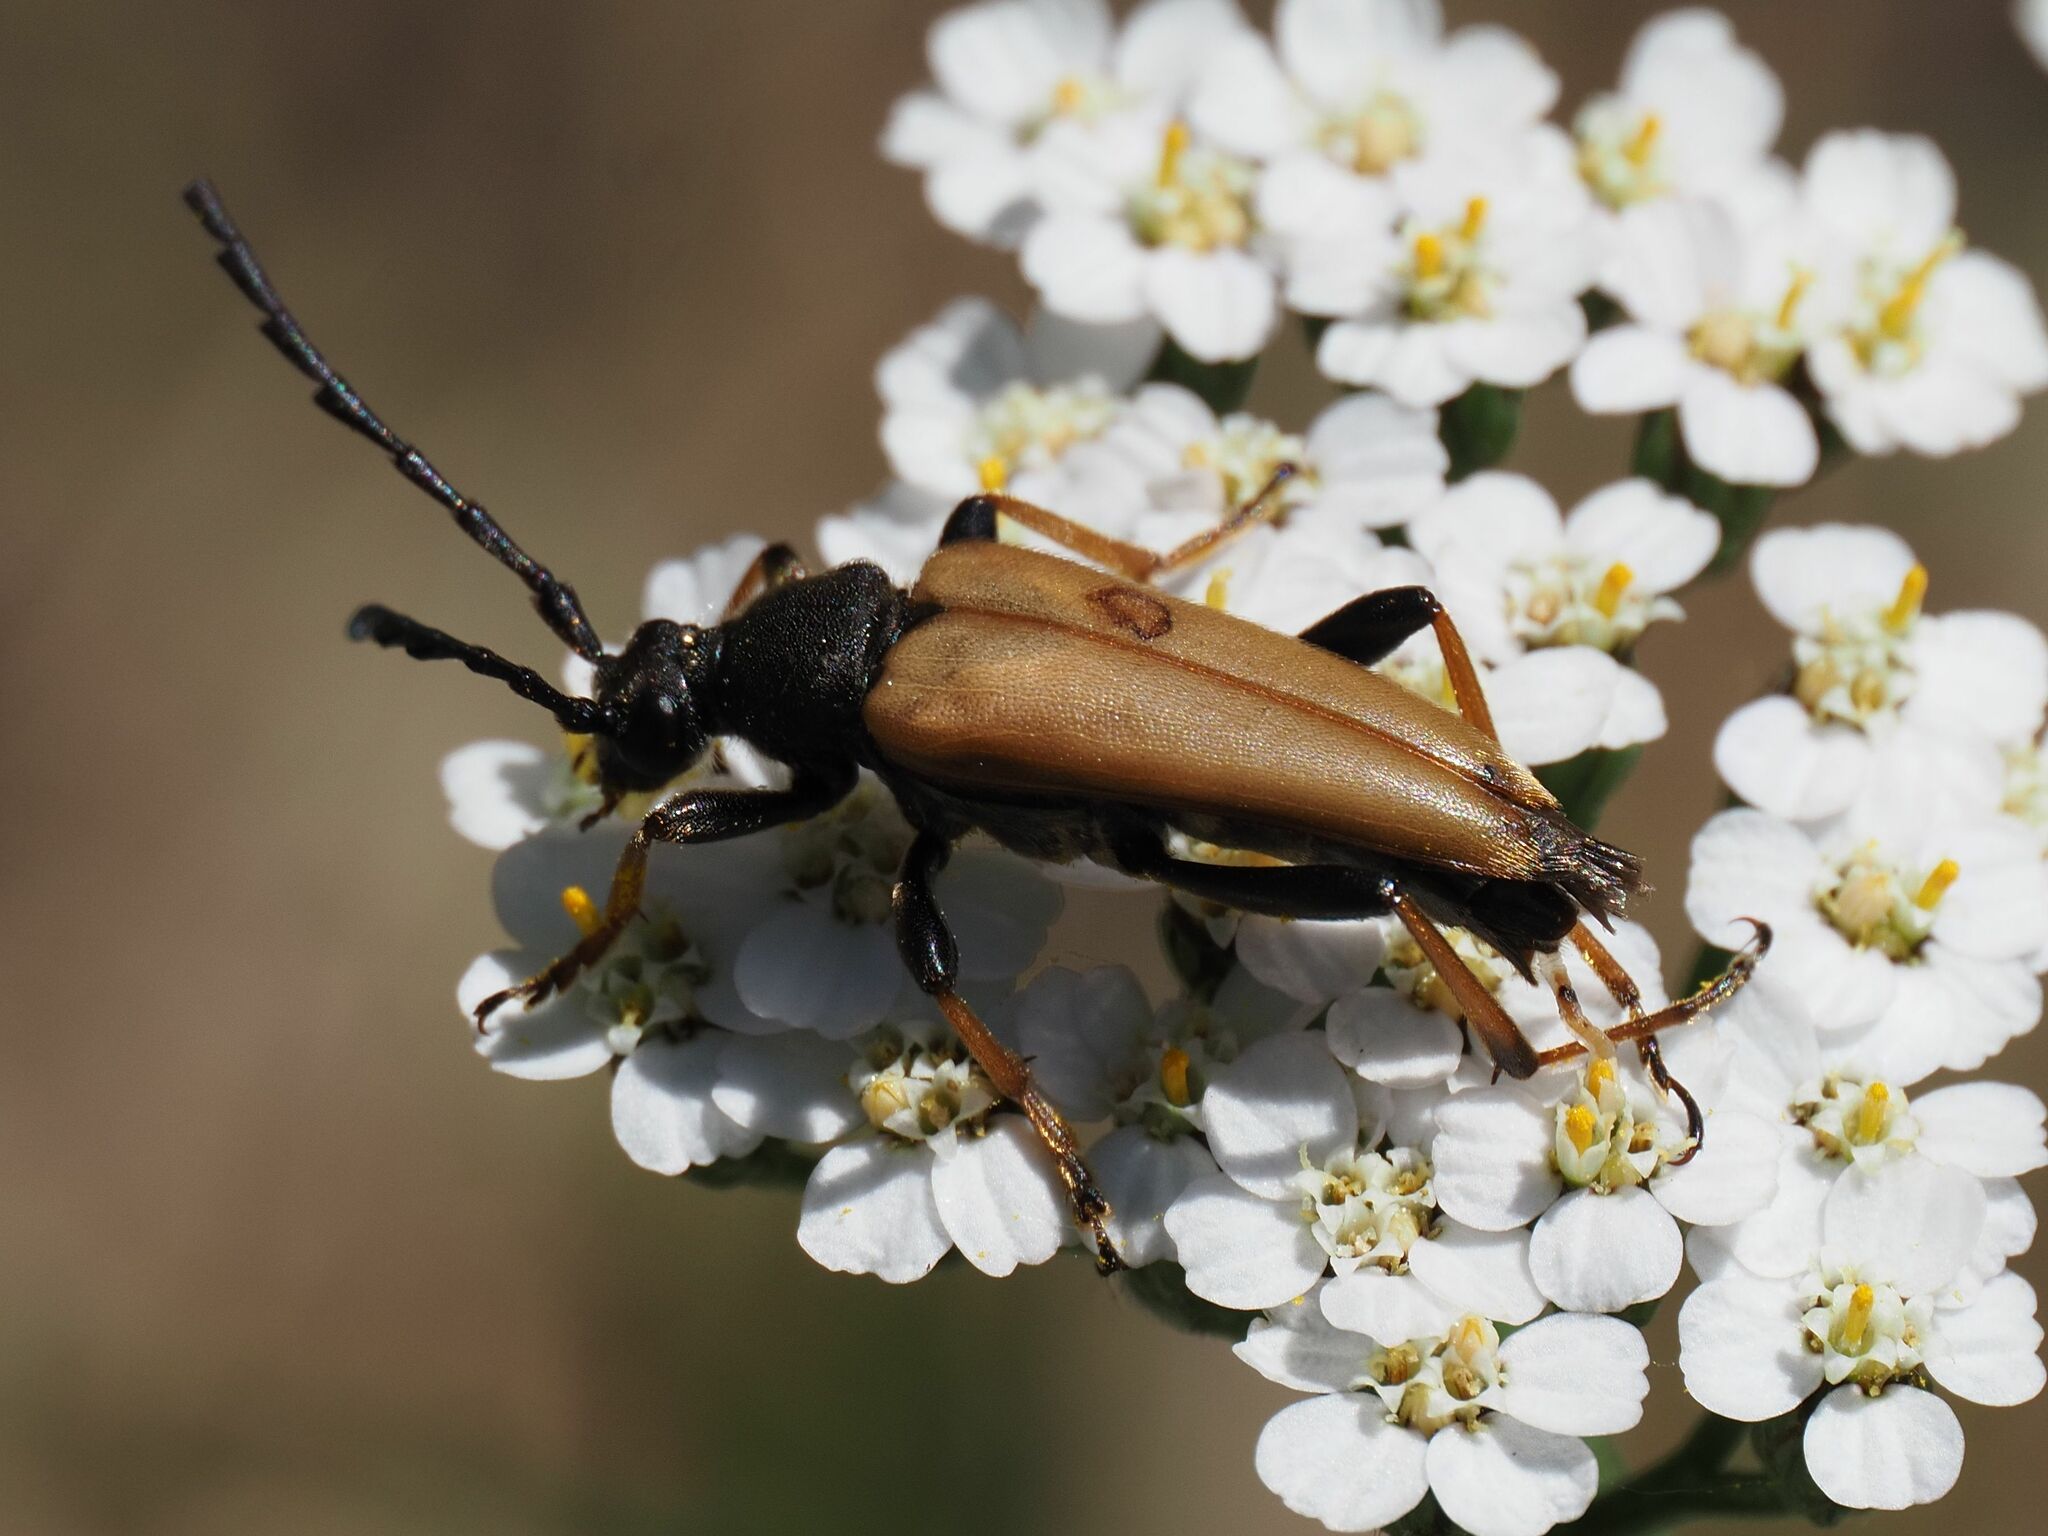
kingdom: Animalia
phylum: Arthropoda
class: Insecta
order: Coleoptera
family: Cerambycidae
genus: Stictoleptura
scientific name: Stictoleptura rubra
